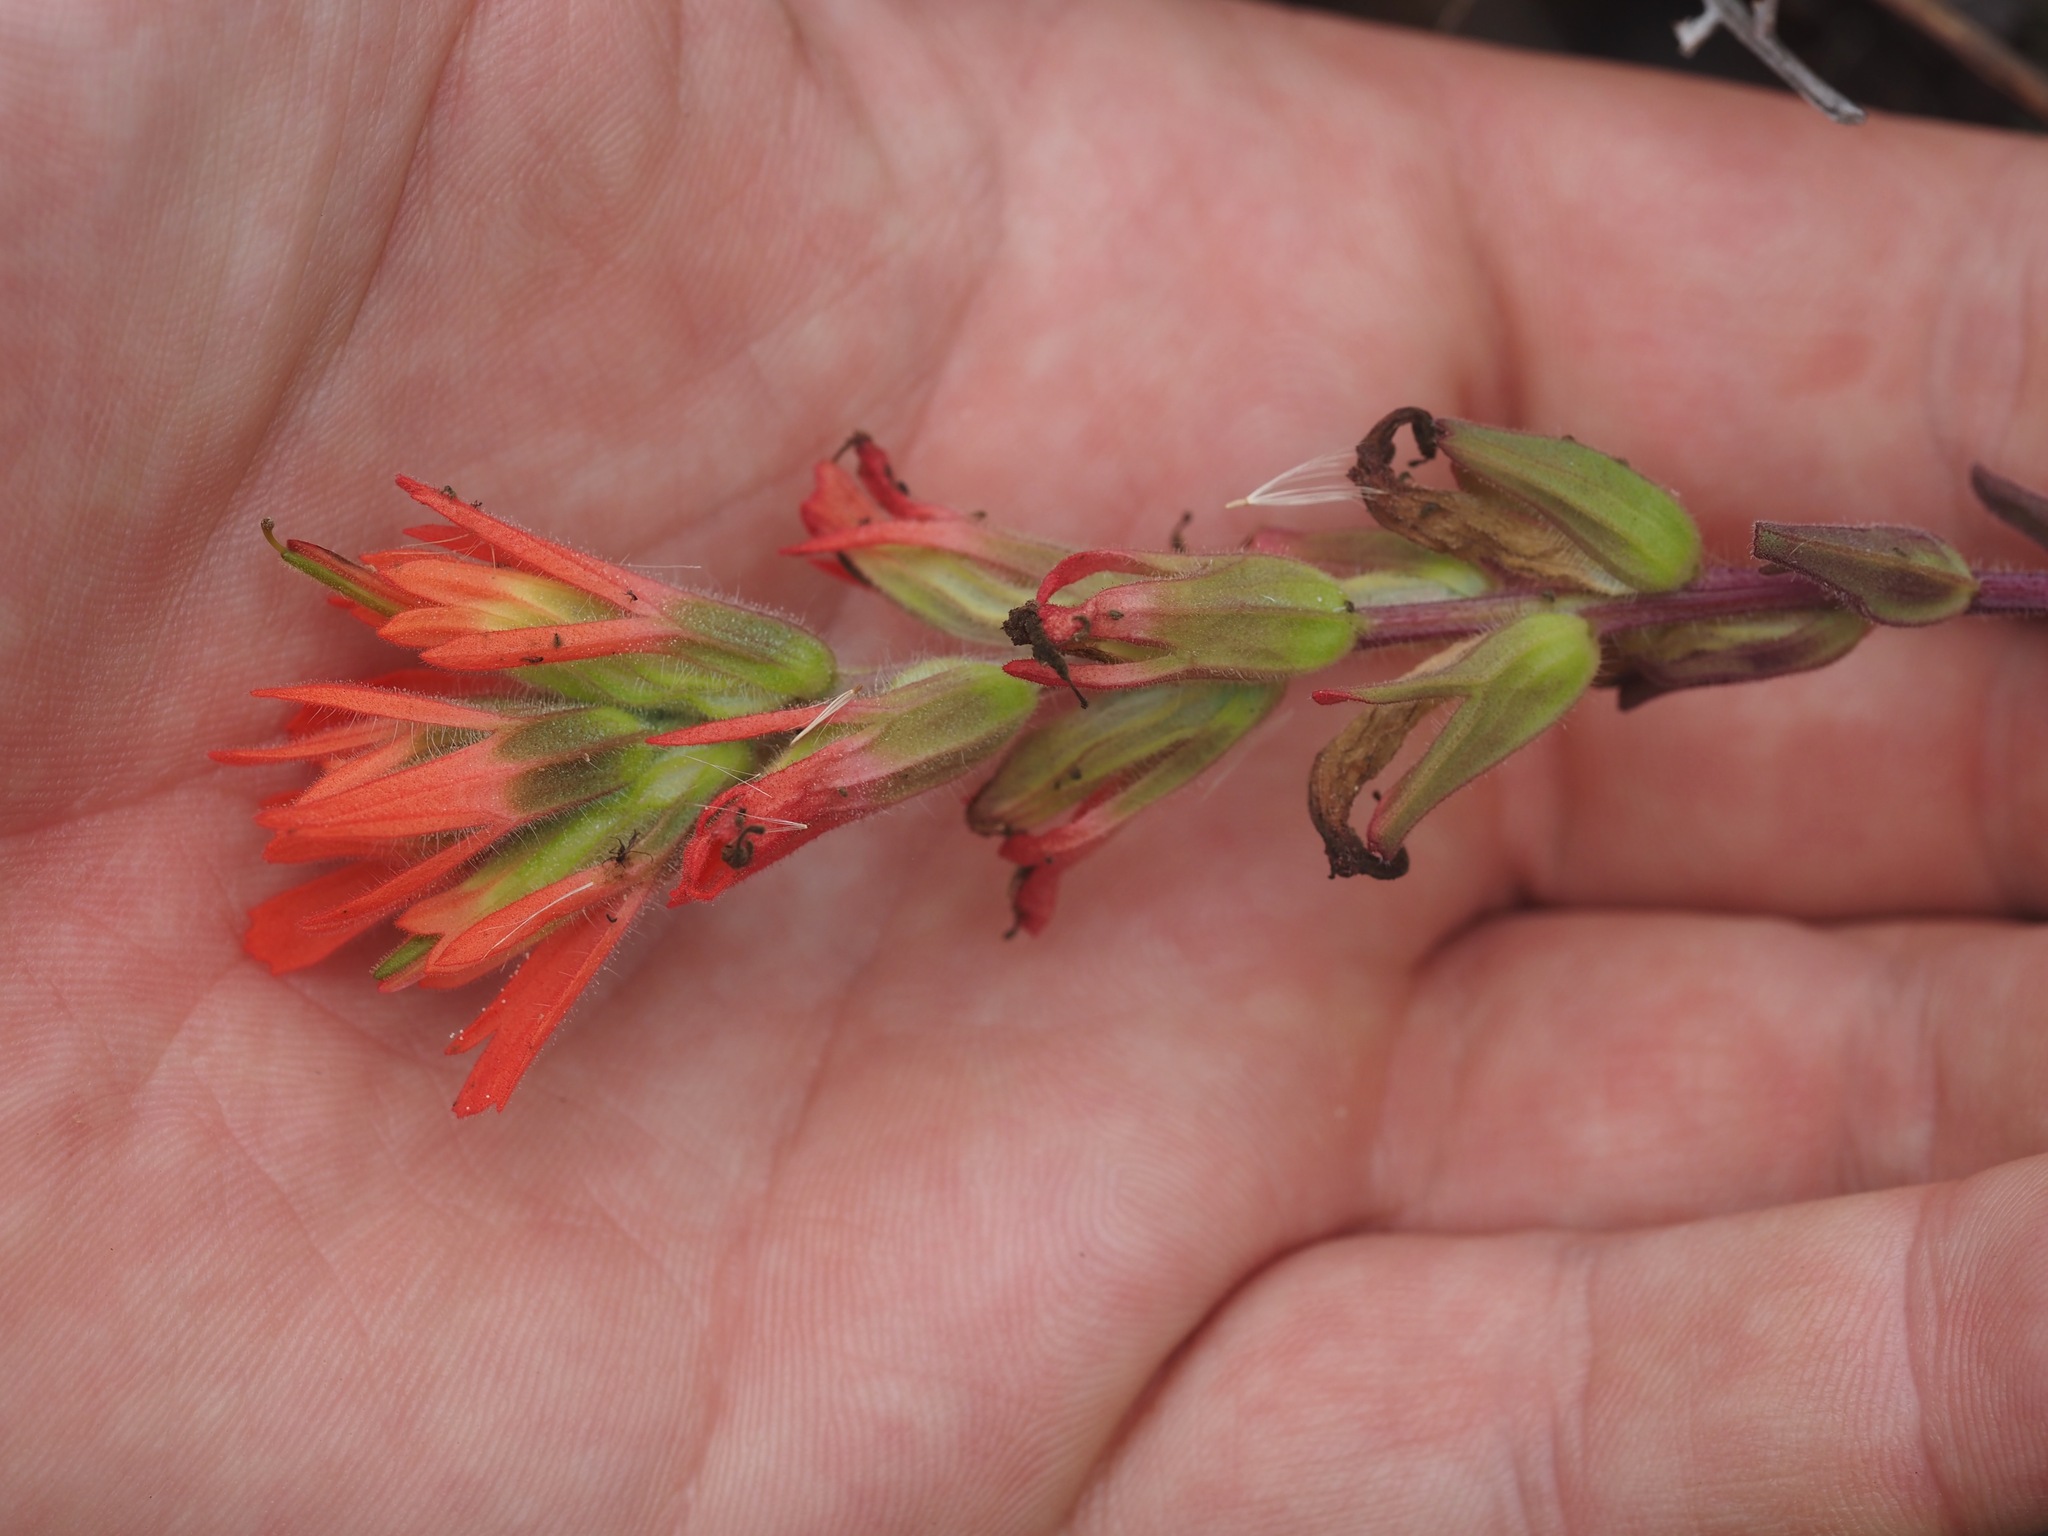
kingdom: Plantae
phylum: Tracheophyta
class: Magnoliopsida
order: Lamiales
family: Orobanchaceae
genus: Castilleja
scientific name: Castilleja affinis
